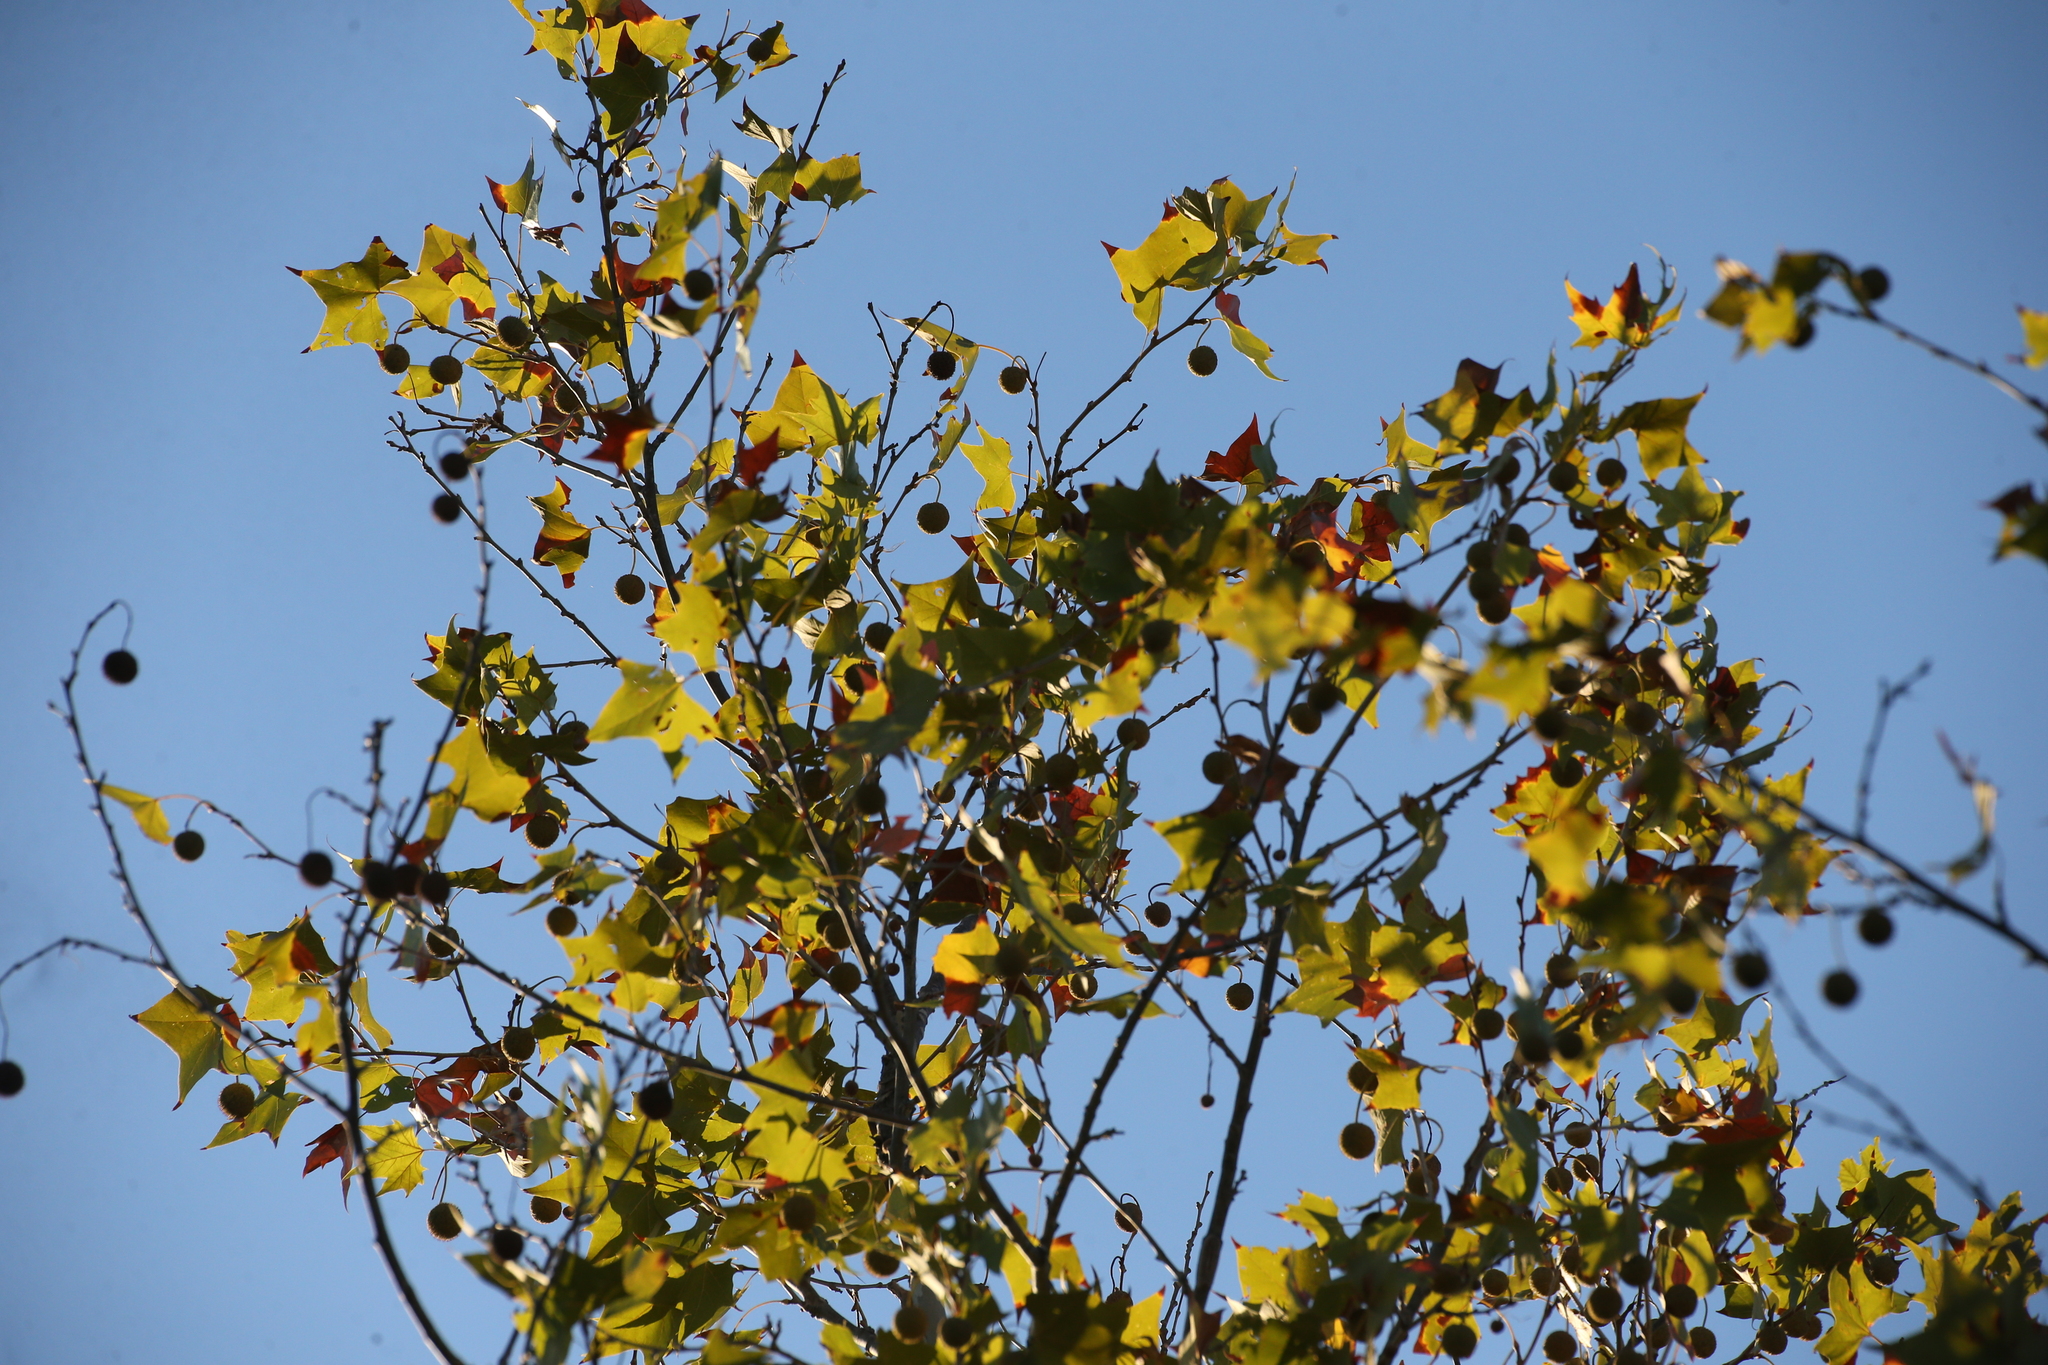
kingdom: Plantae
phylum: Tracheophyta
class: Magnoliopsida
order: Proteales
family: Platanaceae
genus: Platanus
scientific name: Platanus occidentalis
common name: American sycamore
